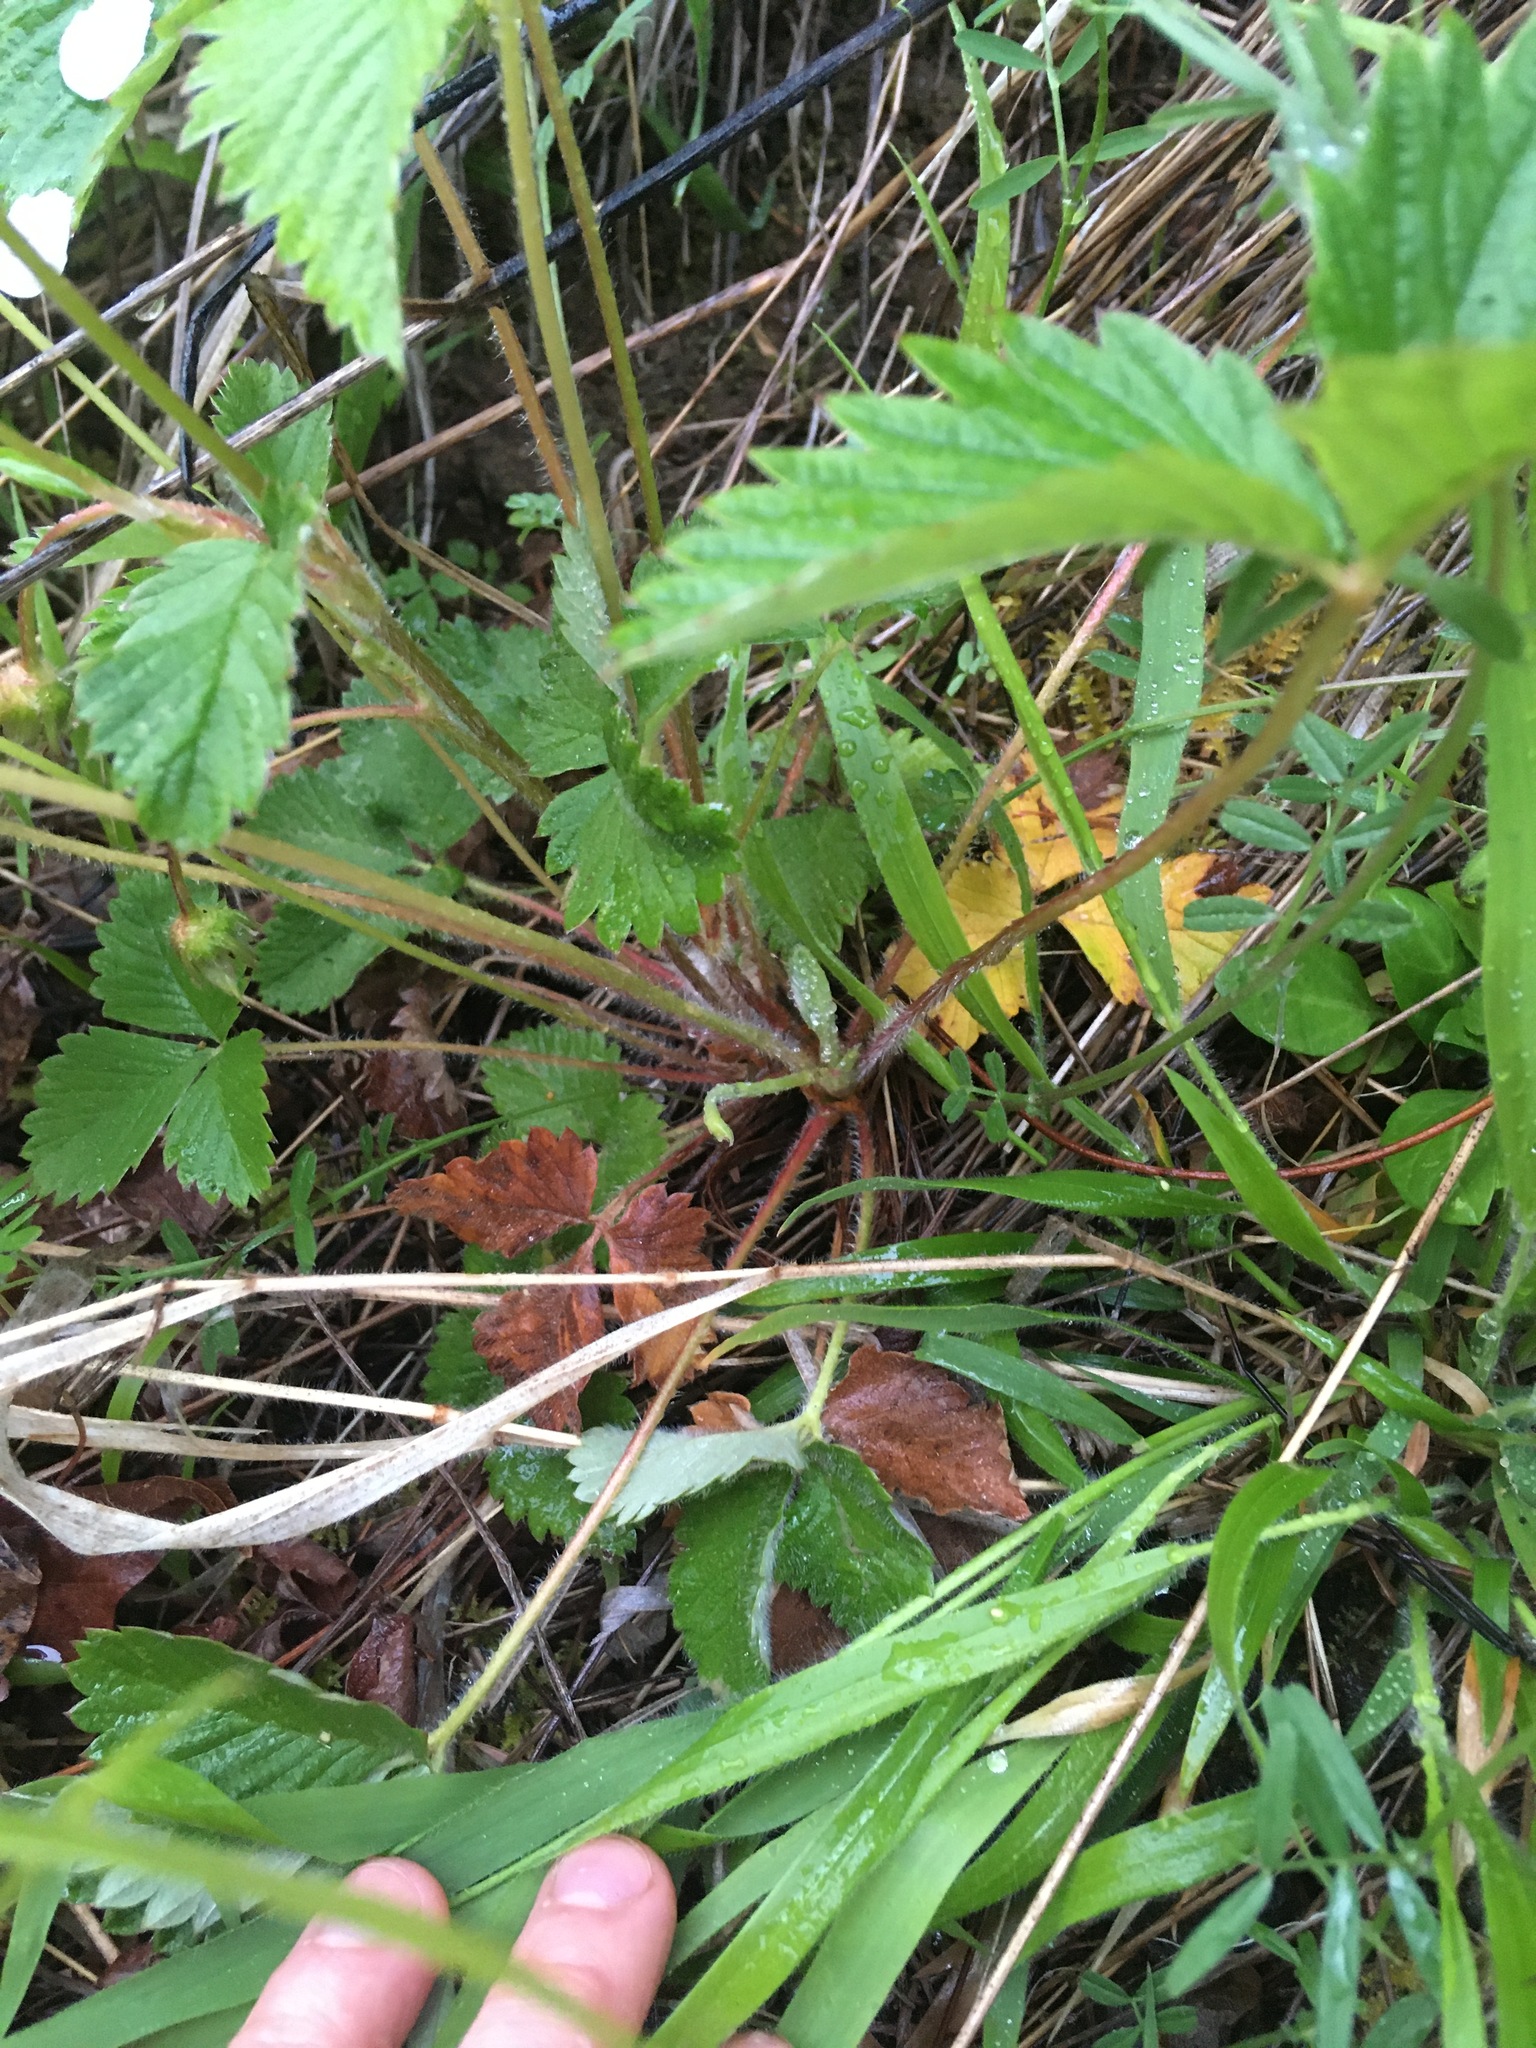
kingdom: Plantae
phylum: Tracheophyta
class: Magnoliopsida
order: Rosales
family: Rosaceae
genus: Fragaria
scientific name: Fragaria vesca
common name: Wild strawberry
